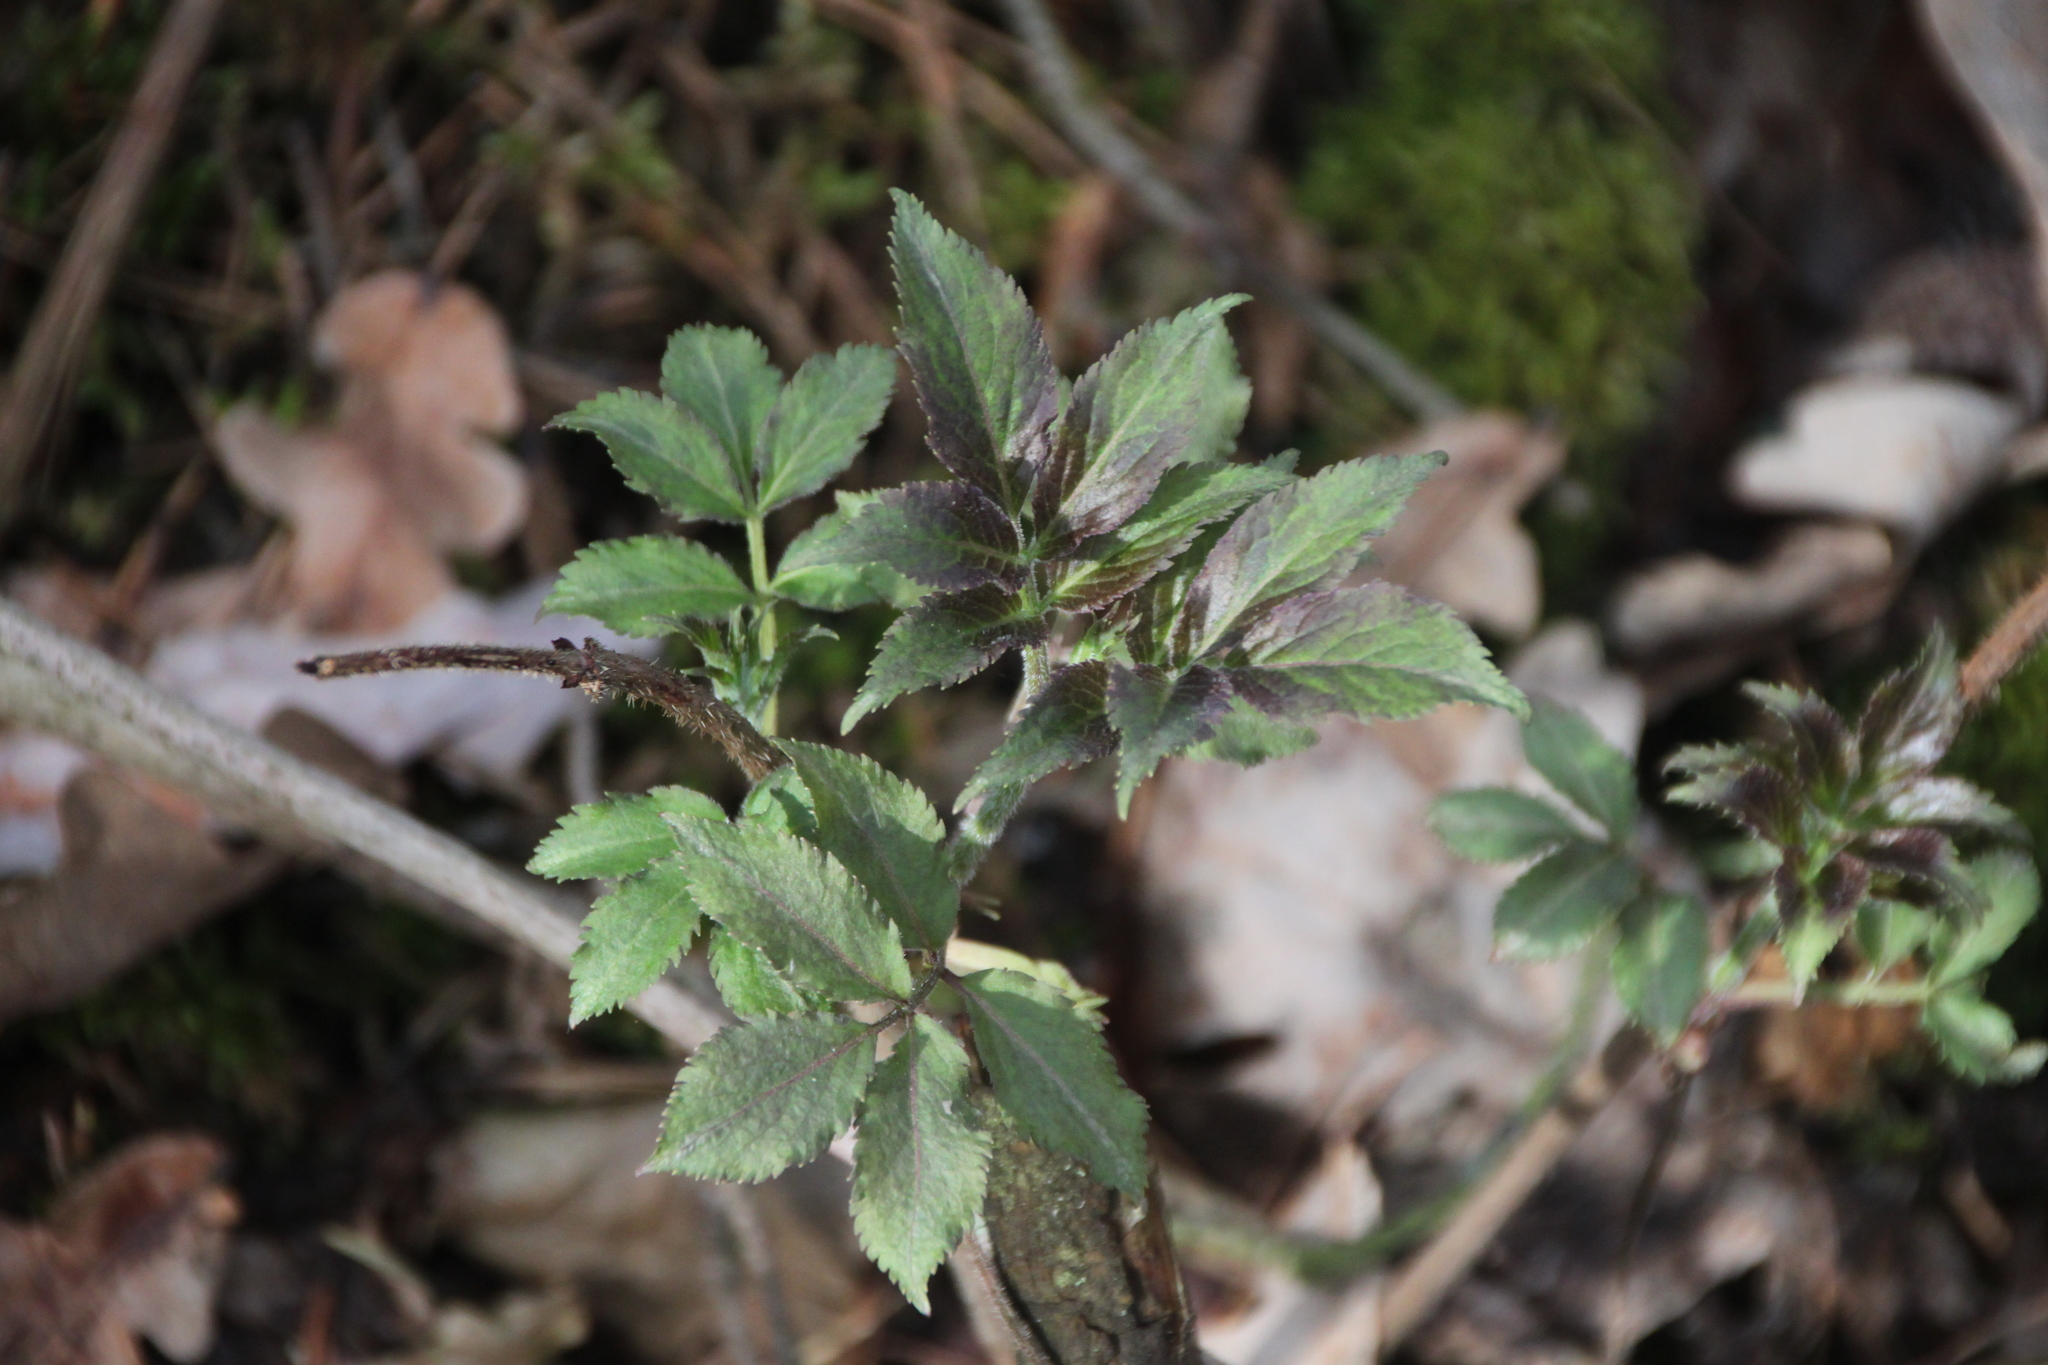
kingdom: Plantae
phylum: Tracheophyta
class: Magnoliopsida
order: Dipsacales
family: Viburnaceae
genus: Sambucus
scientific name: Sambucus racemosa
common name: Red-berried elder
